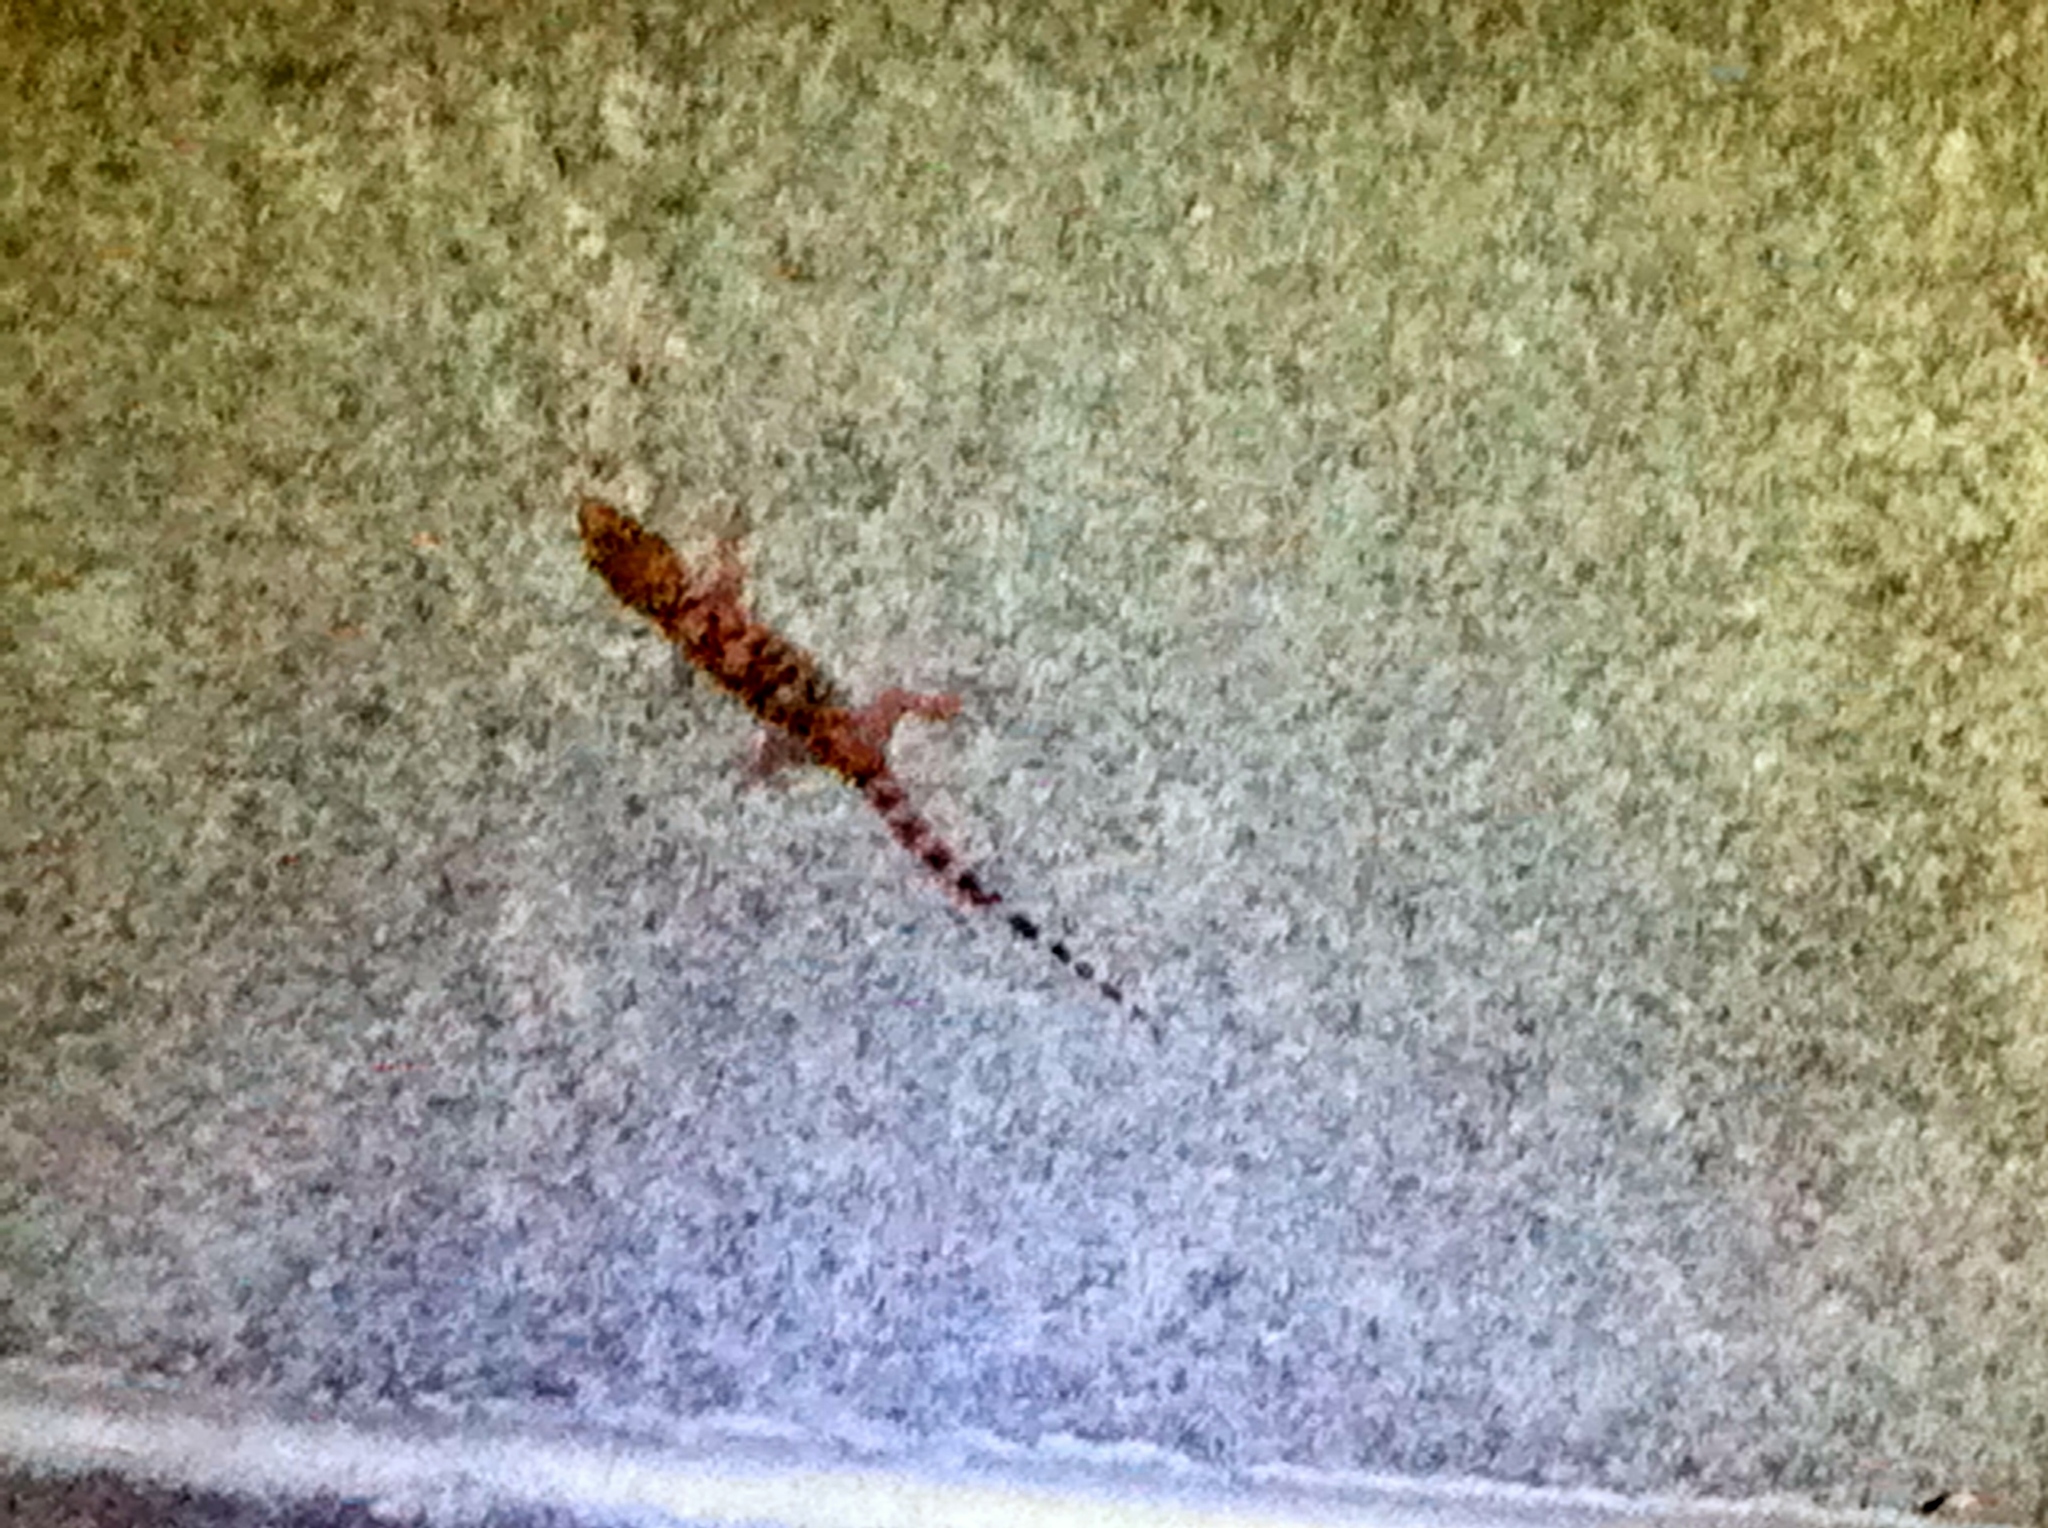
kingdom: Animalia
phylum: Chordata
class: Squamata
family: Gekkonidae
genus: Hemidactylus
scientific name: Hemidactylus turcicus
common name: Turkish gecko
